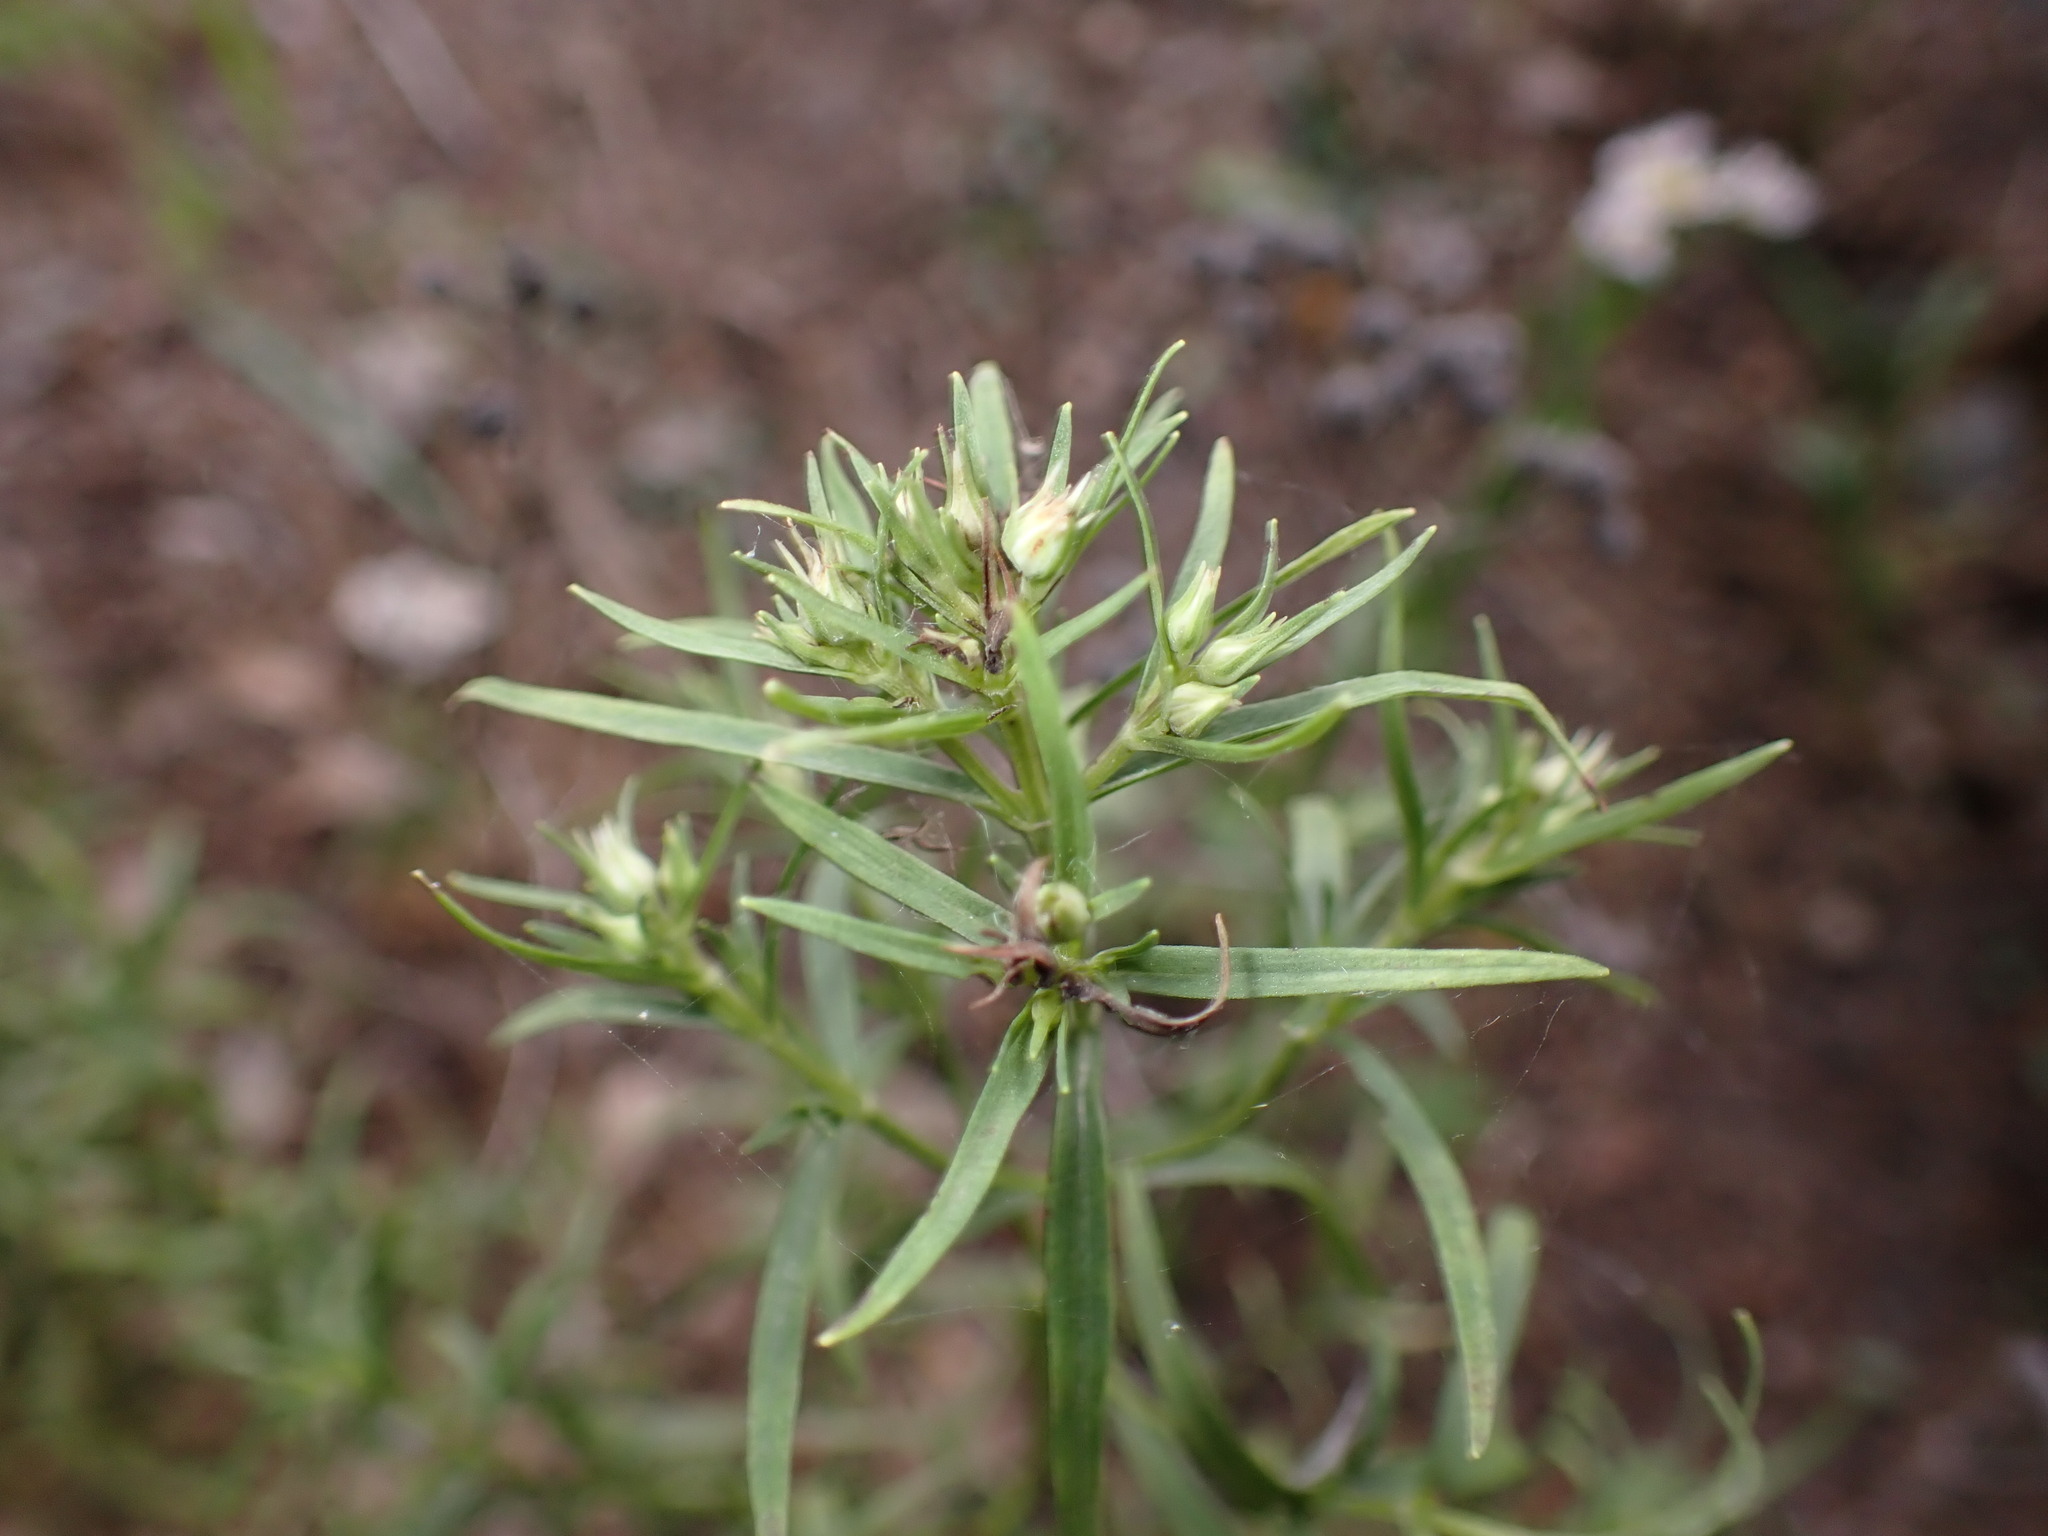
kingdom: Plantae
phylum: Tracheophyta
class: Magnoliopsida
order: Lamiales
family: Lamiaceae
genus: Pycnanthemum
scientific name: Pycnanthemum tenuifolium
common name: Narrow-leaf mountain-mint
